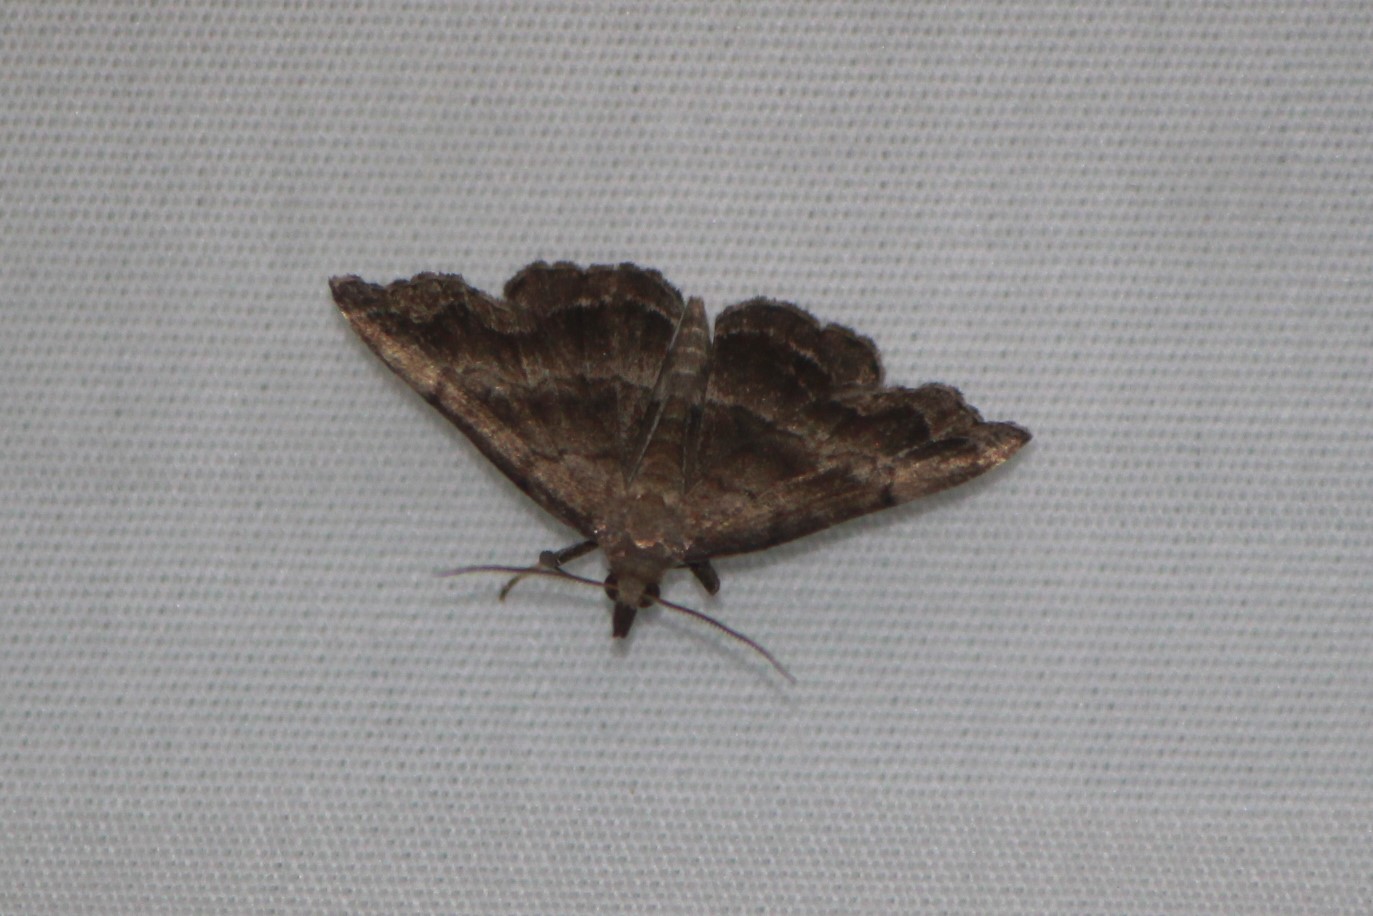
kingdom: Animalia
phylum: Arthropoda
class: Insecta
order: Lepidoptera
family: Erebidae
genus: Phalaenostola
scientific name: Phalaenostola larentioides
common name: Black-banded owlet
